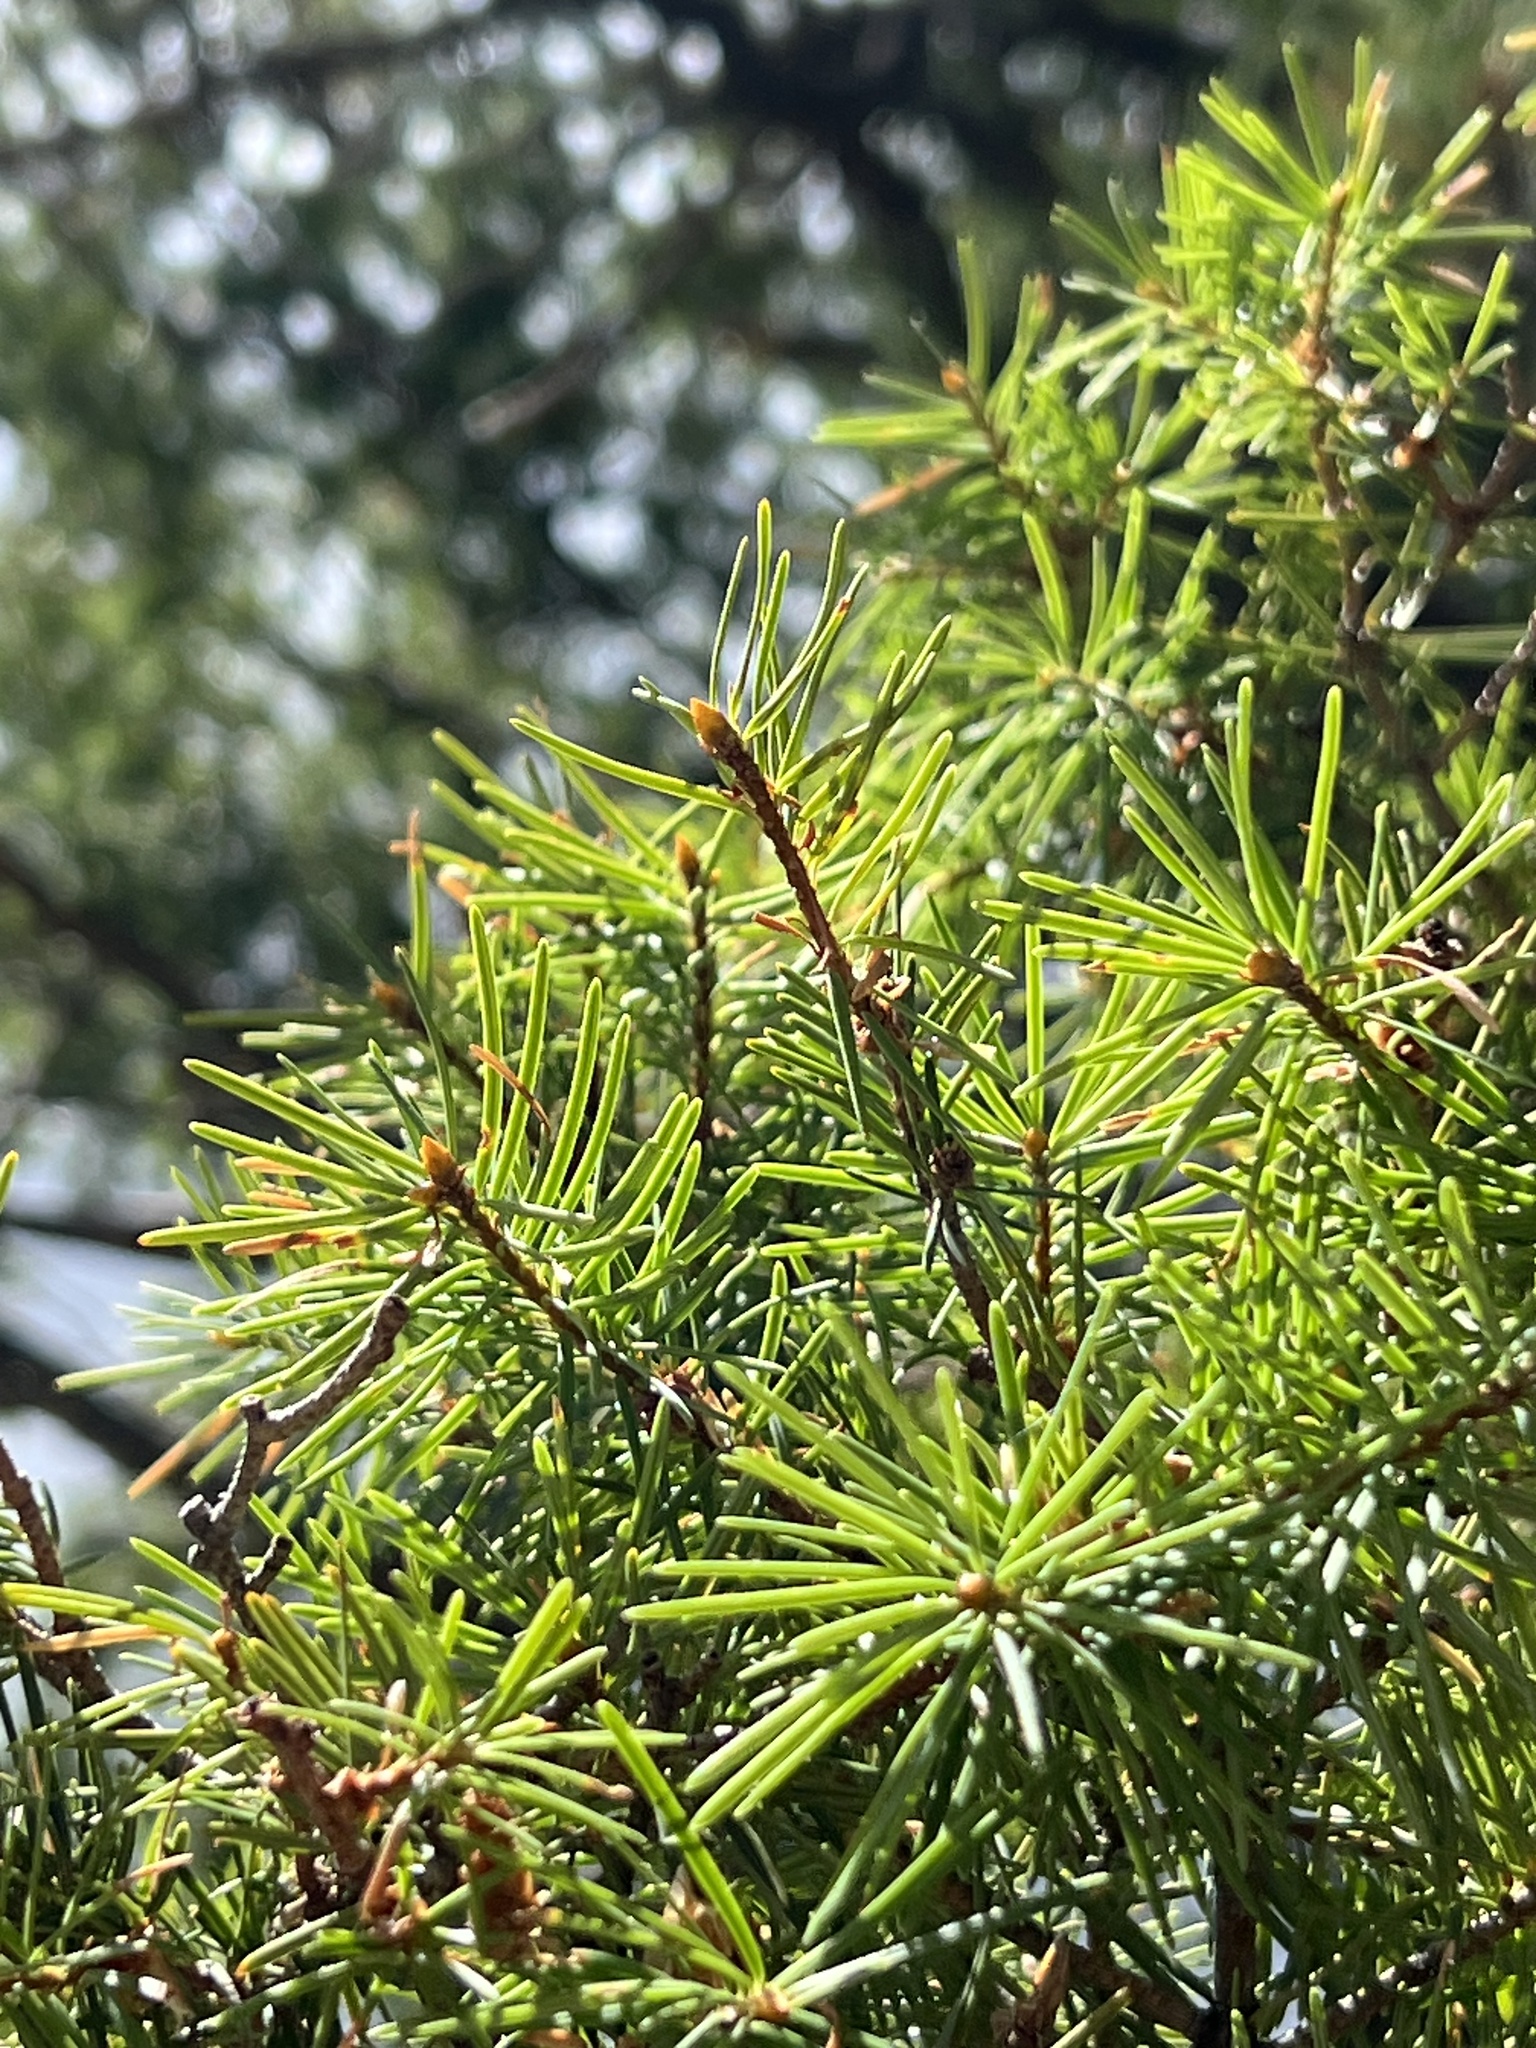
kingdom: Plantae
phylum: Tracheophyta
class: Pinopsida
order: Pinales
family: Pinaceae
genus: Pseudotsuga
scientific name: Pseudotsuga menziesii
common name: Douglas fir
